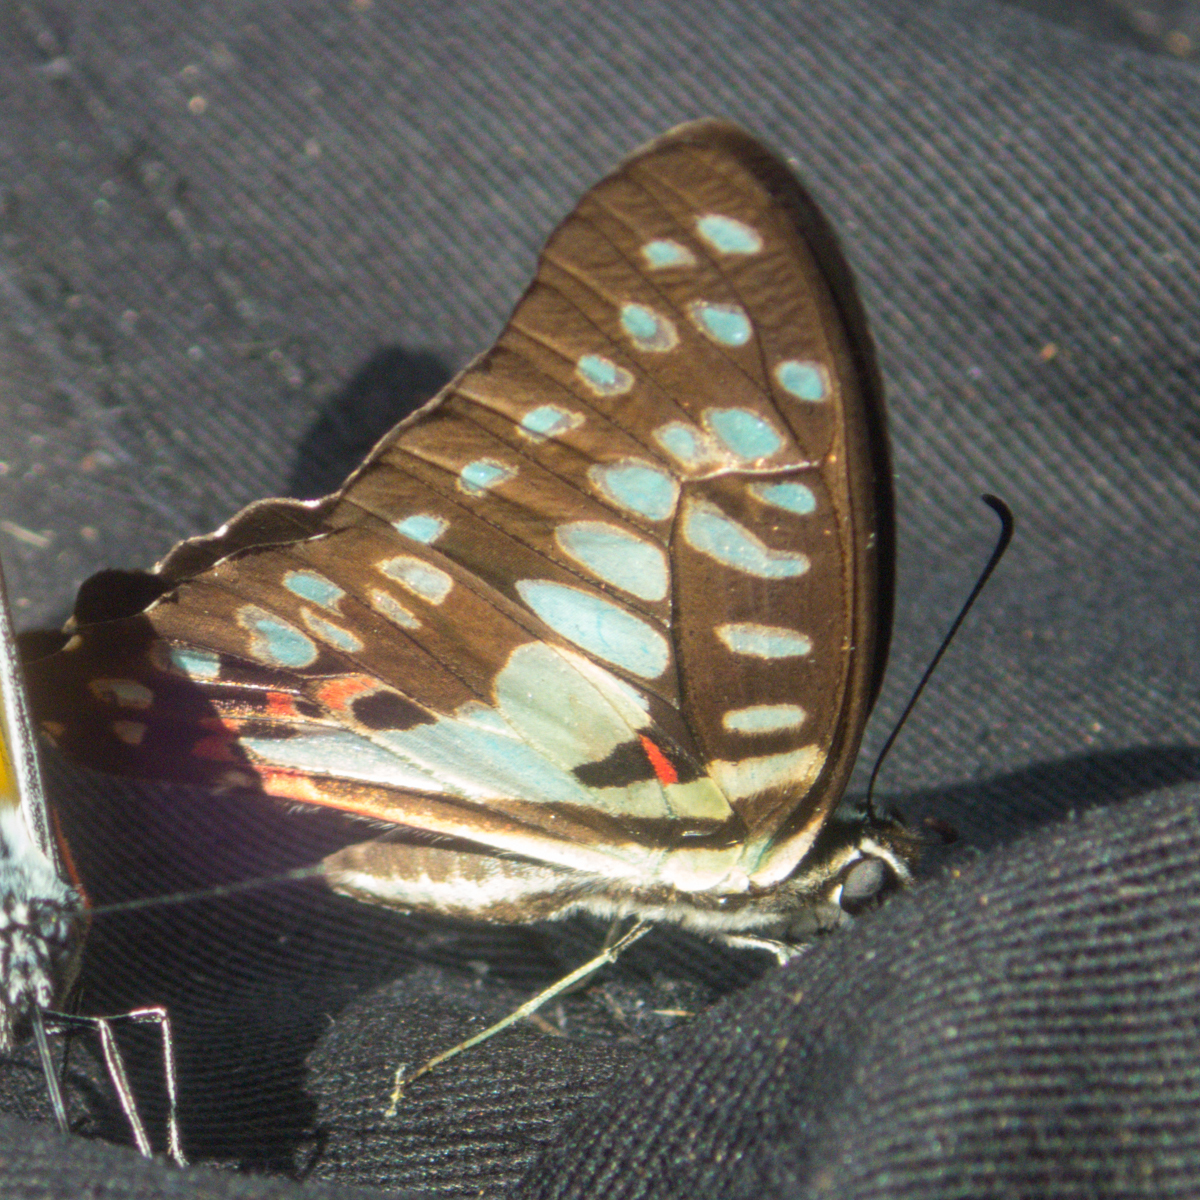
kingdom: Animalia
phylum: Arthropoda
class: Insecta
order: Lepidoptera
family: Papilionidae
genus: Graphium
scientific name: Graphium doson
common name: Common jay
